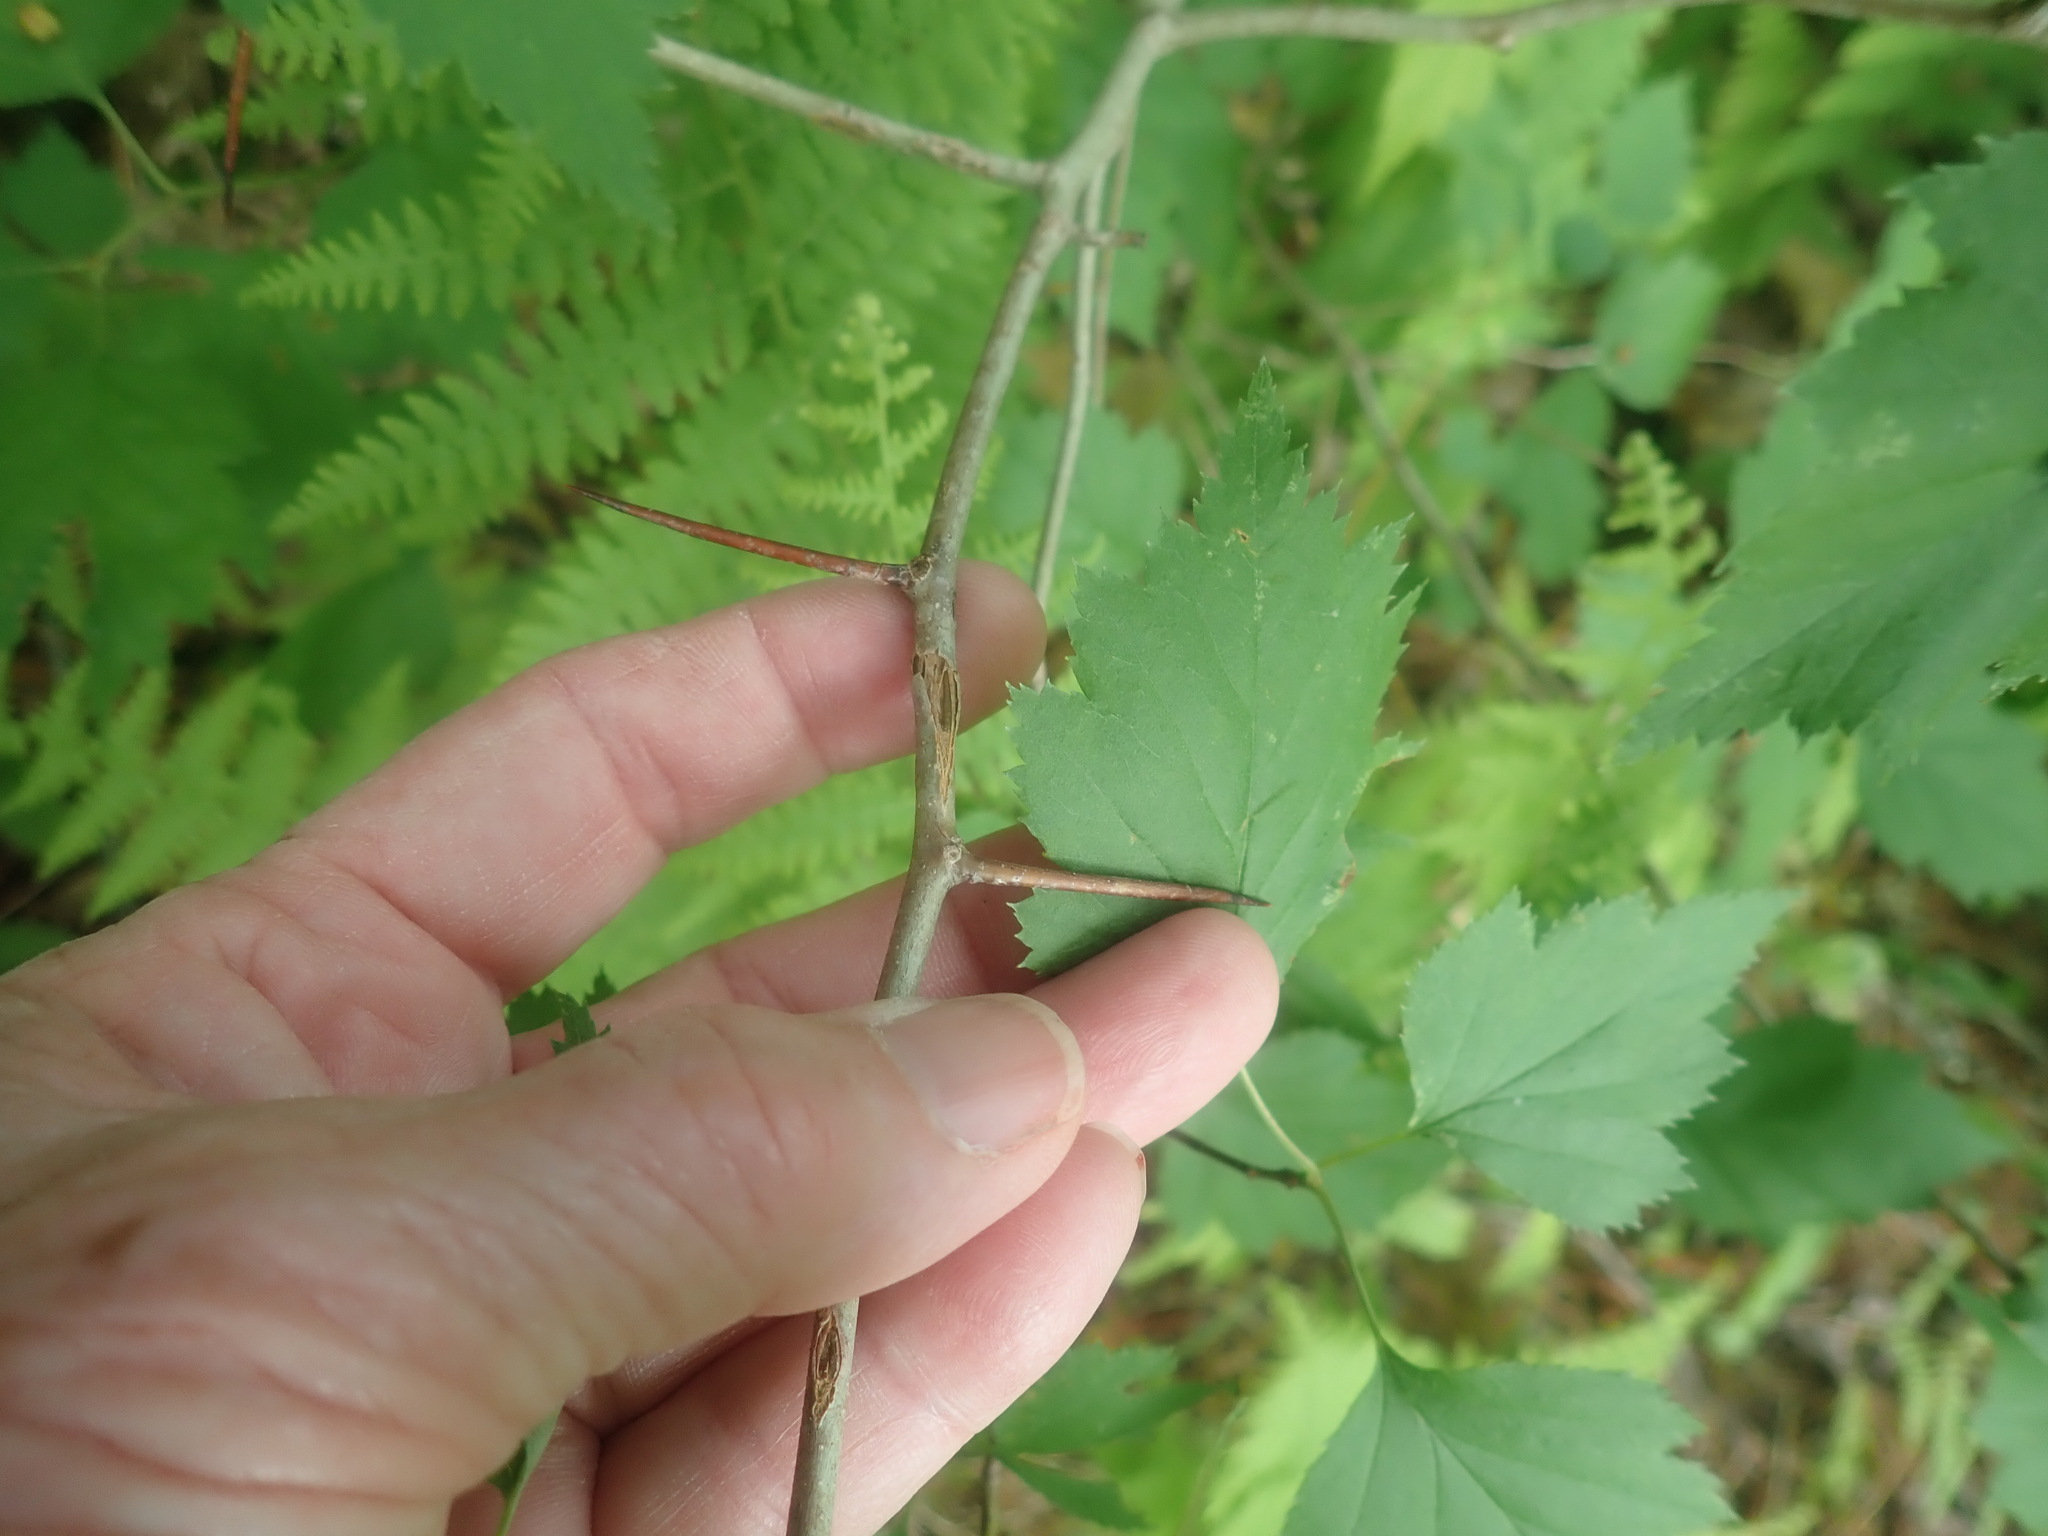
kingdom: Plantae
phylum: Tracheophyta
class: Magnoliopsida
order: Rosales
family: Rosaceae
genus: Crataegus
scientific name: Crataegus
